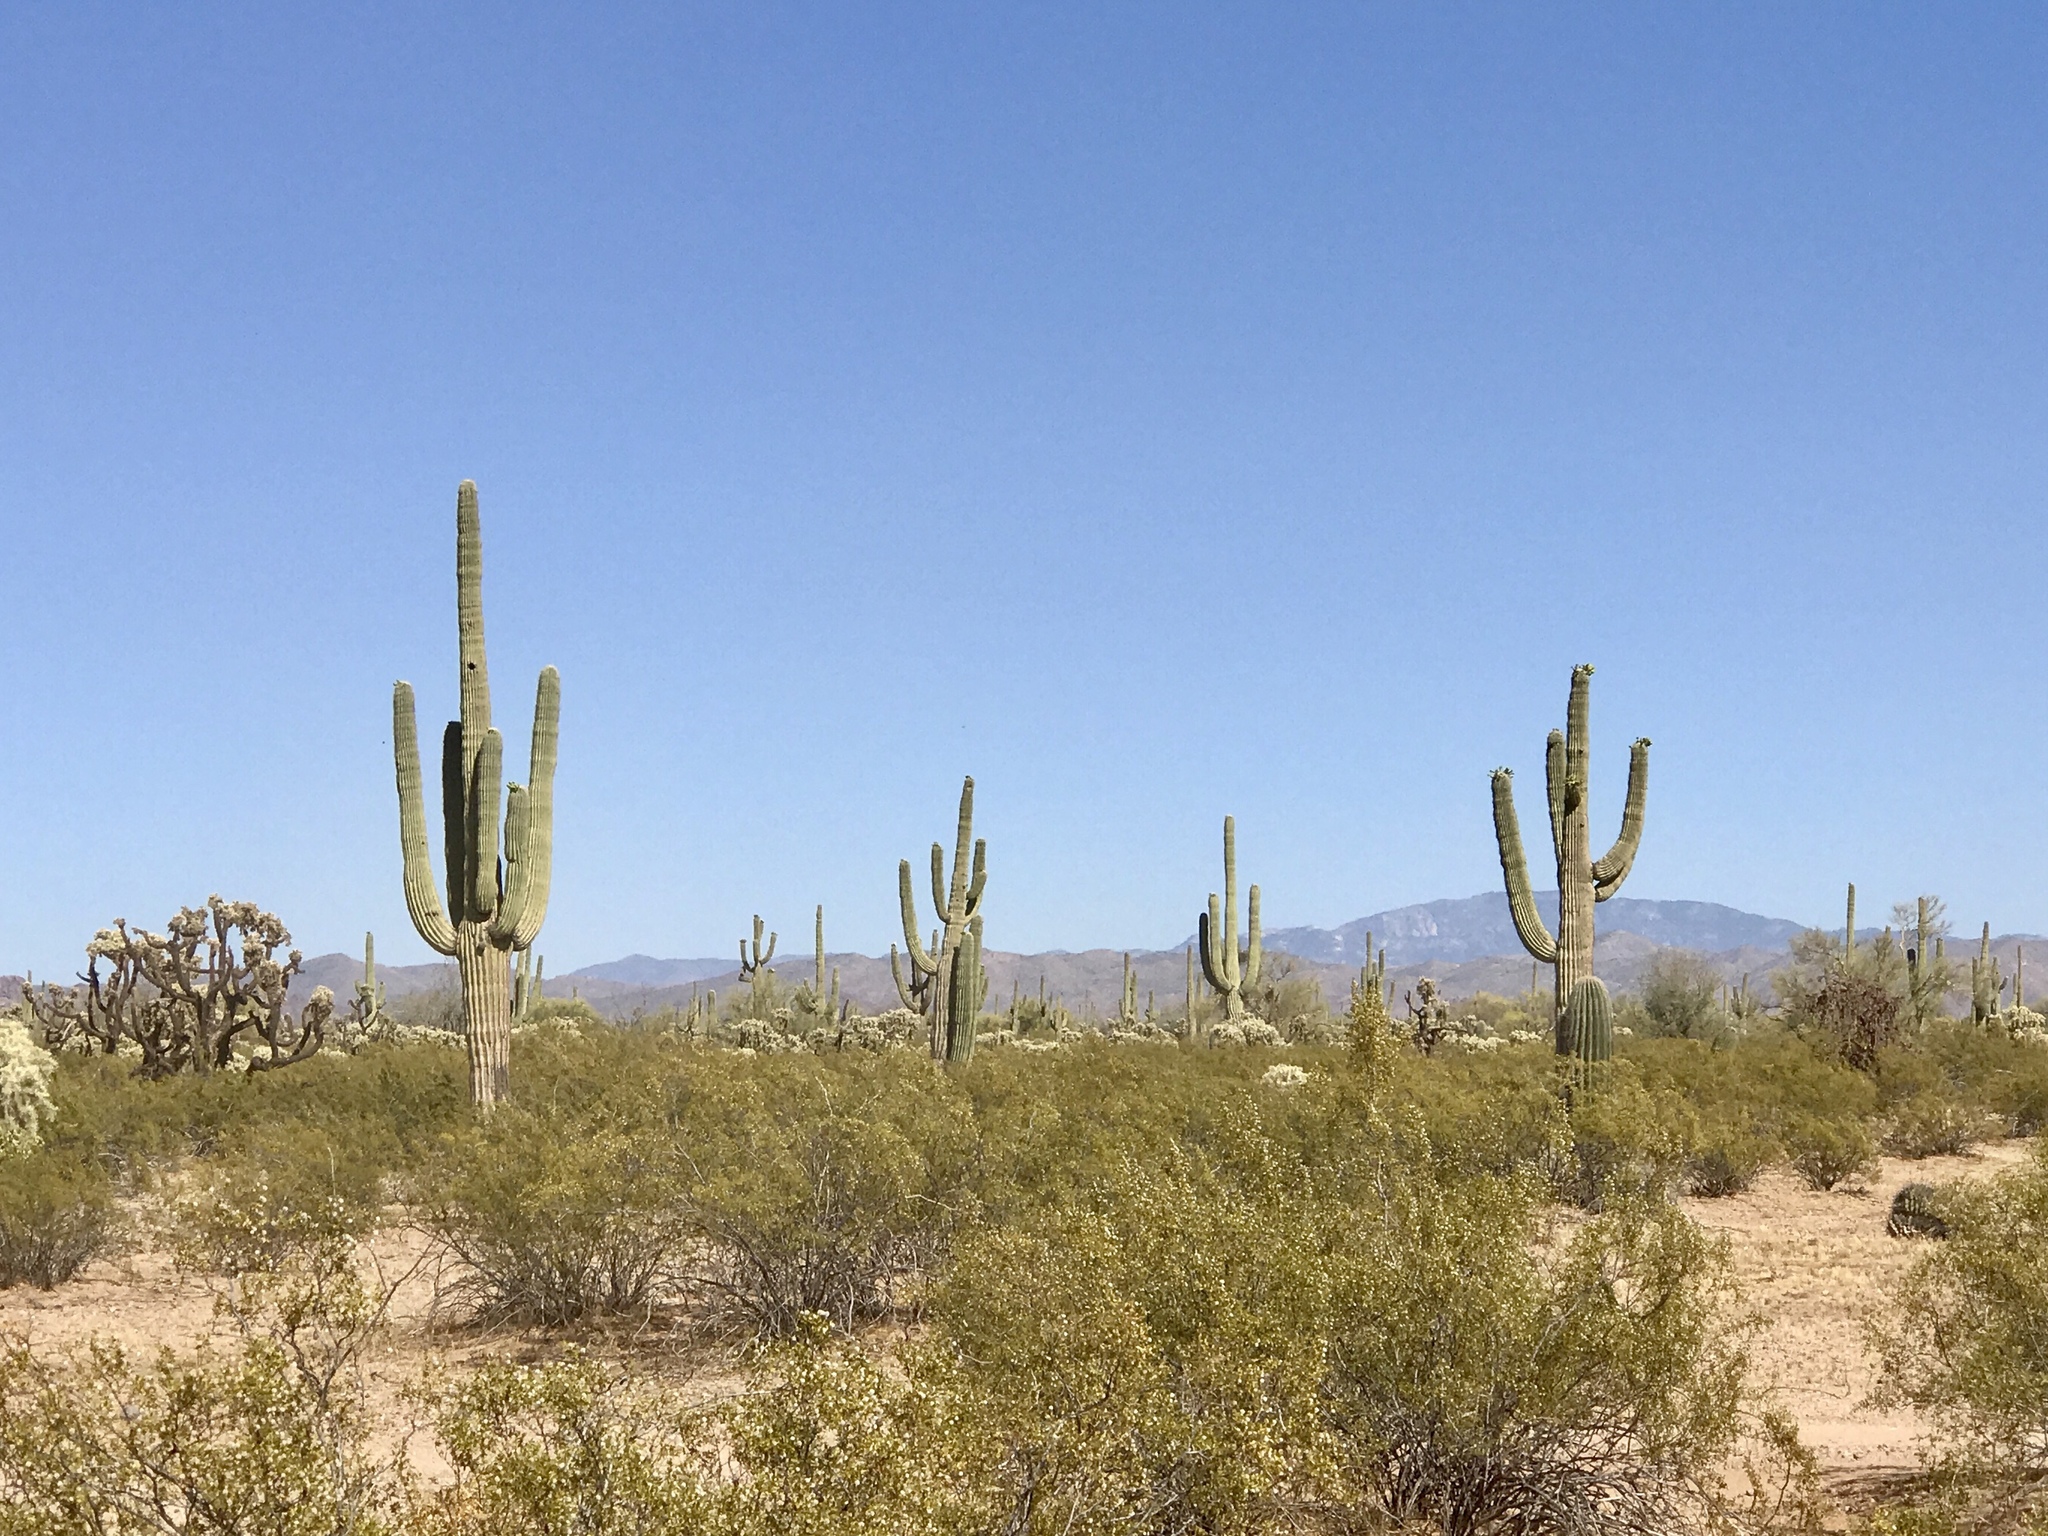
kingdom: Plantae
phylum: Tracheophyta
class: Magnoliopsida
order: Caryophyllales
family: Cactaceae
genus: Carnegiea
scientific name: Carnegiea gigantea
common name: Saguaro
